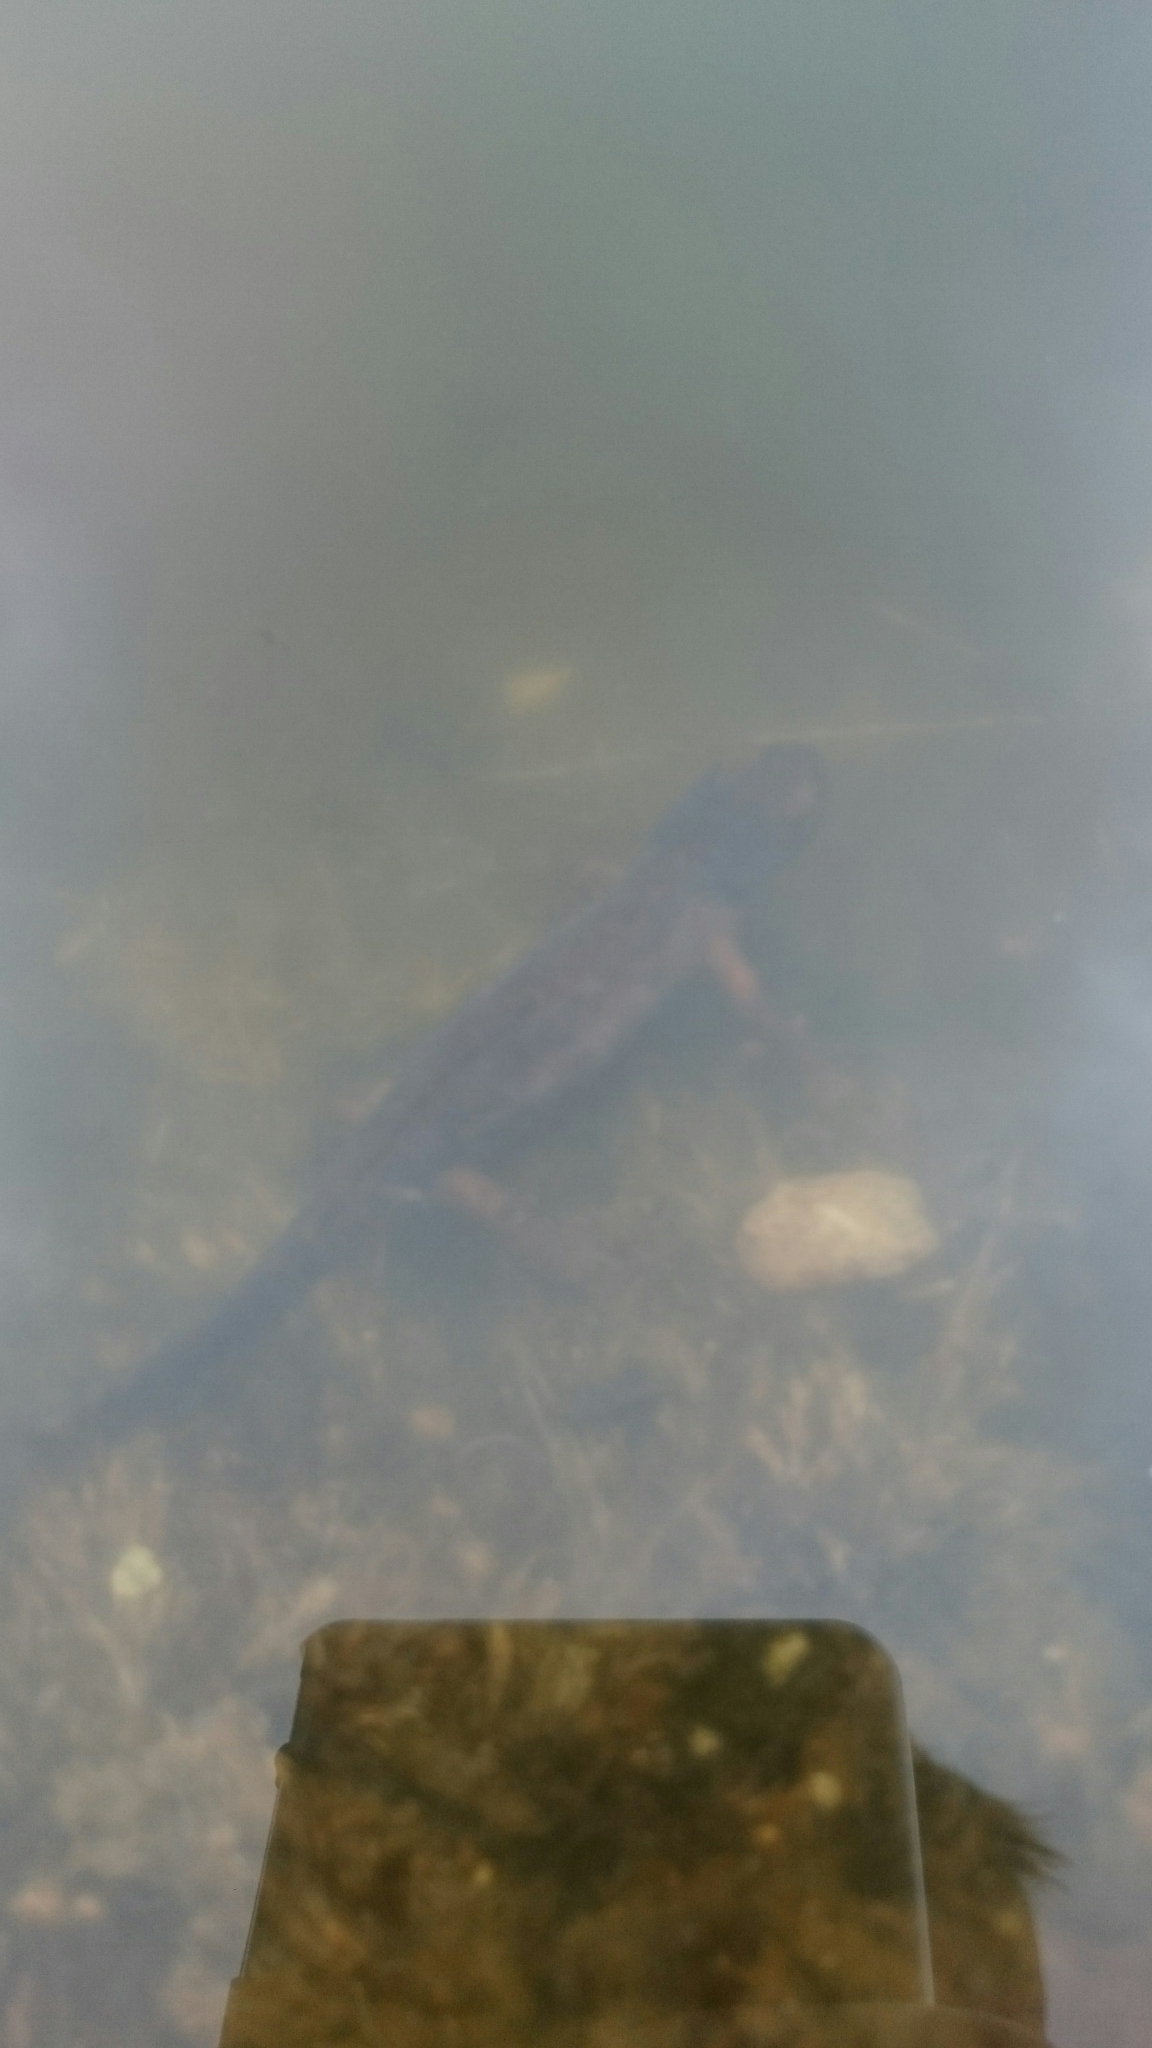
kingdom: Animalia
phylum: Chordata
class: Amphibia
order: Caudata
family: Salamandridae
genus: Ichthyosaura
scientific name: Ichthyosaura alpestris
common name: Alpine newt
